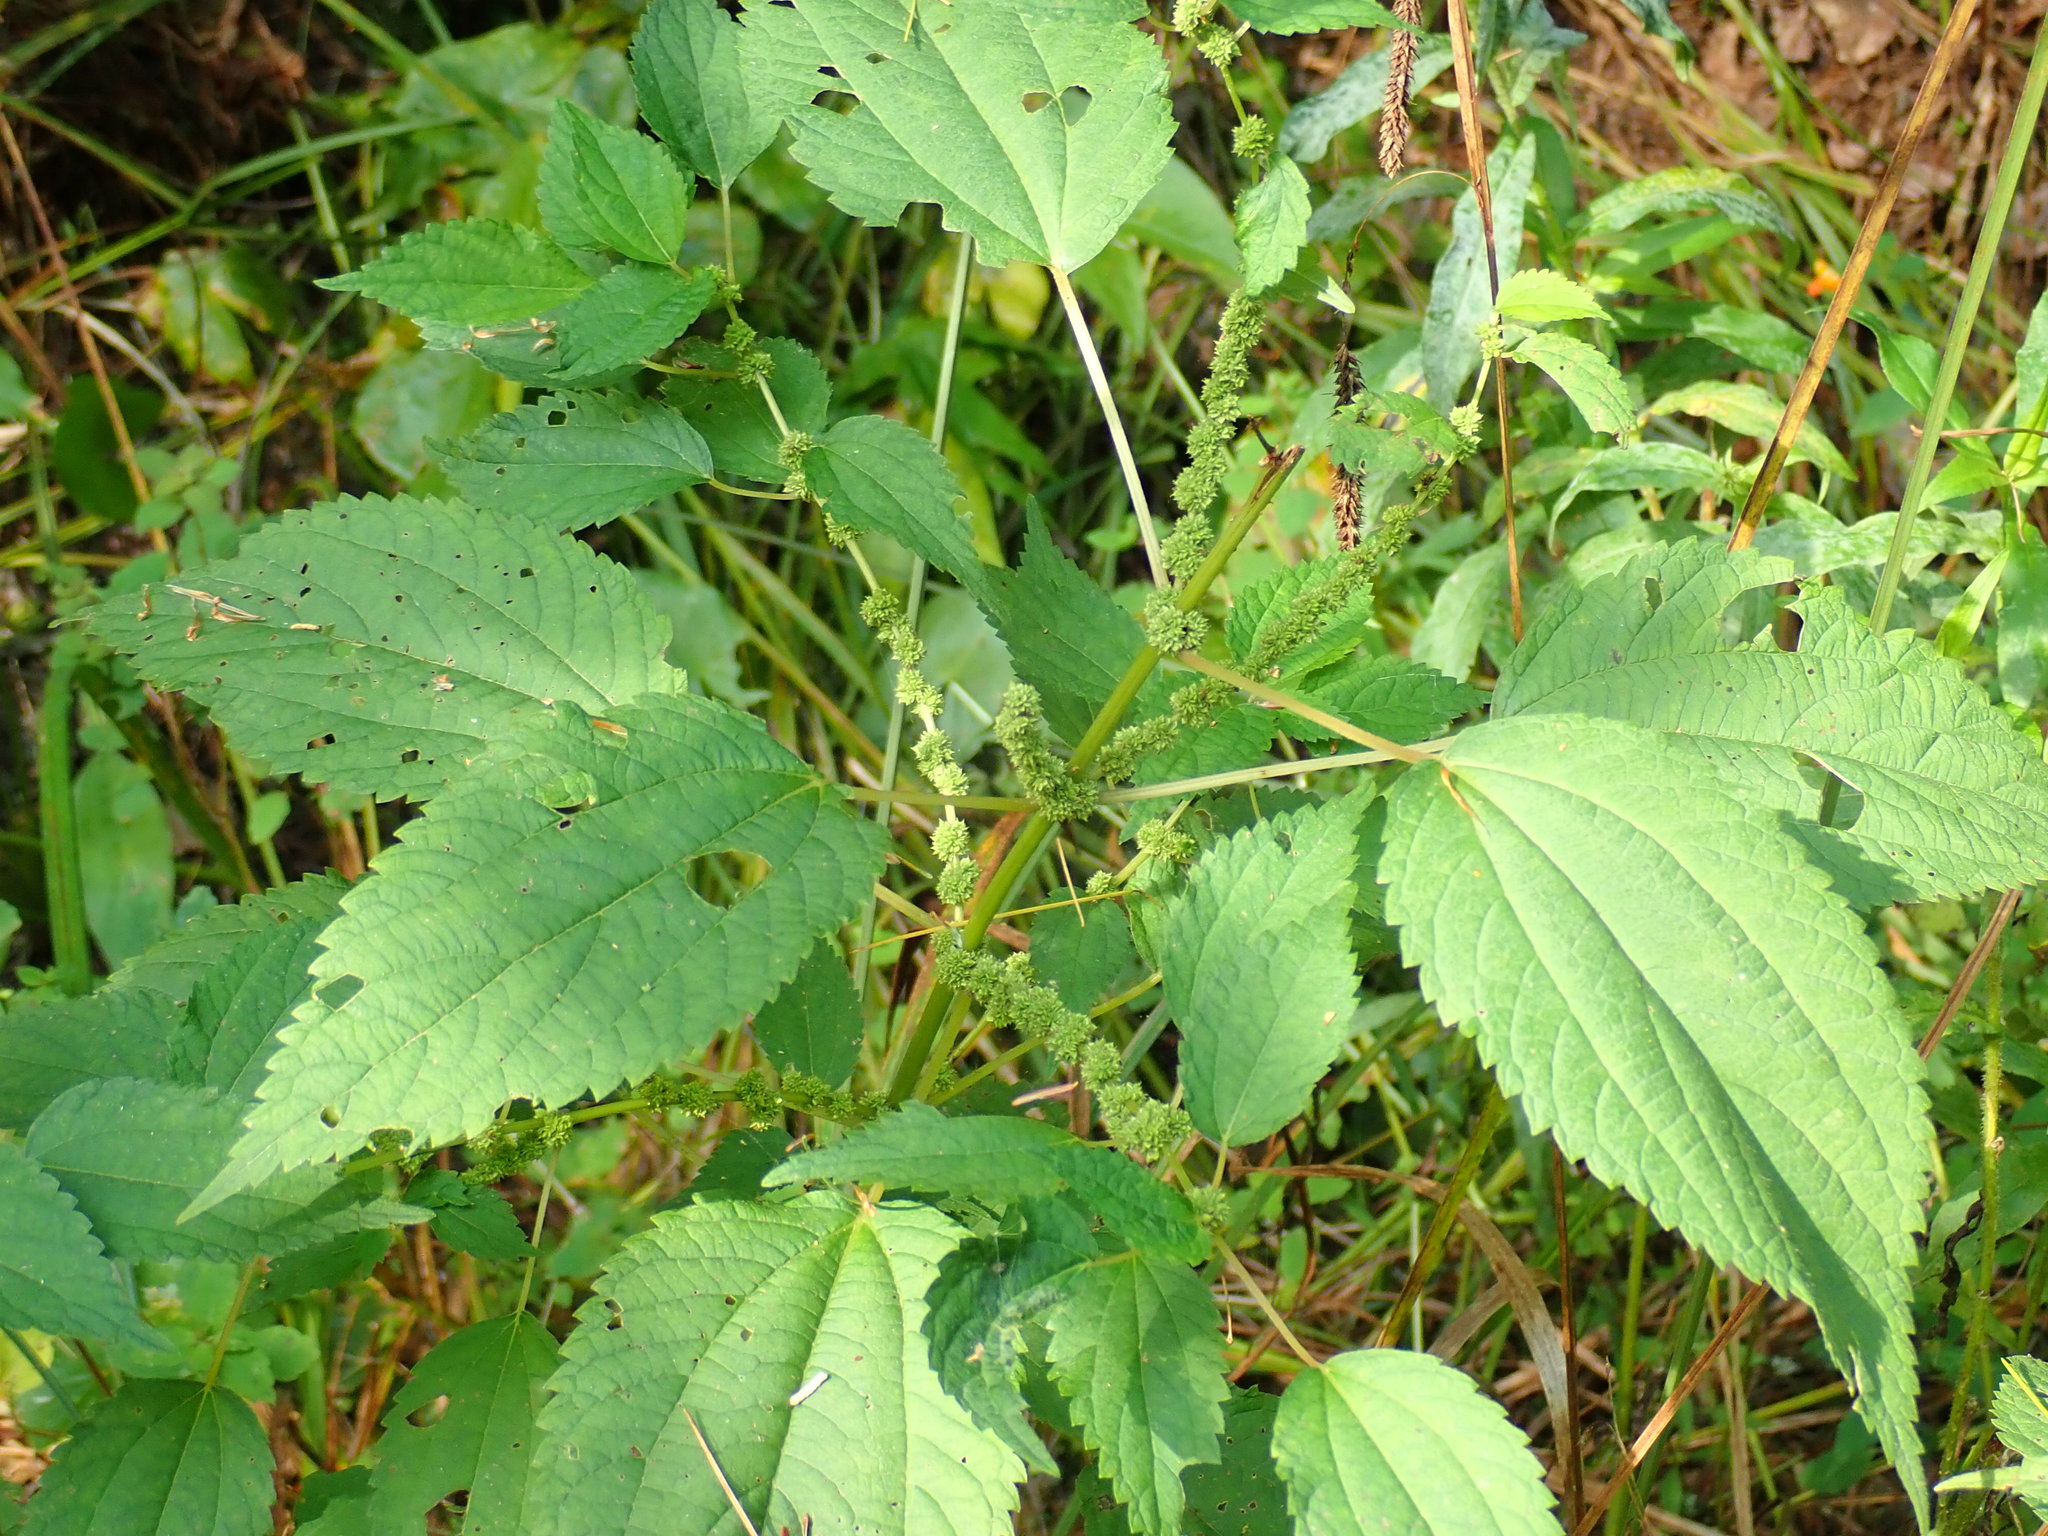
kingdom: Plantae
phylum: Tracheophyta
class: Magnoliopsida
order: Rosales
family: Urticaceae
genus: Boehmeria
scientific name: Boehmeria cylindrica
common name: Bog-hemp
